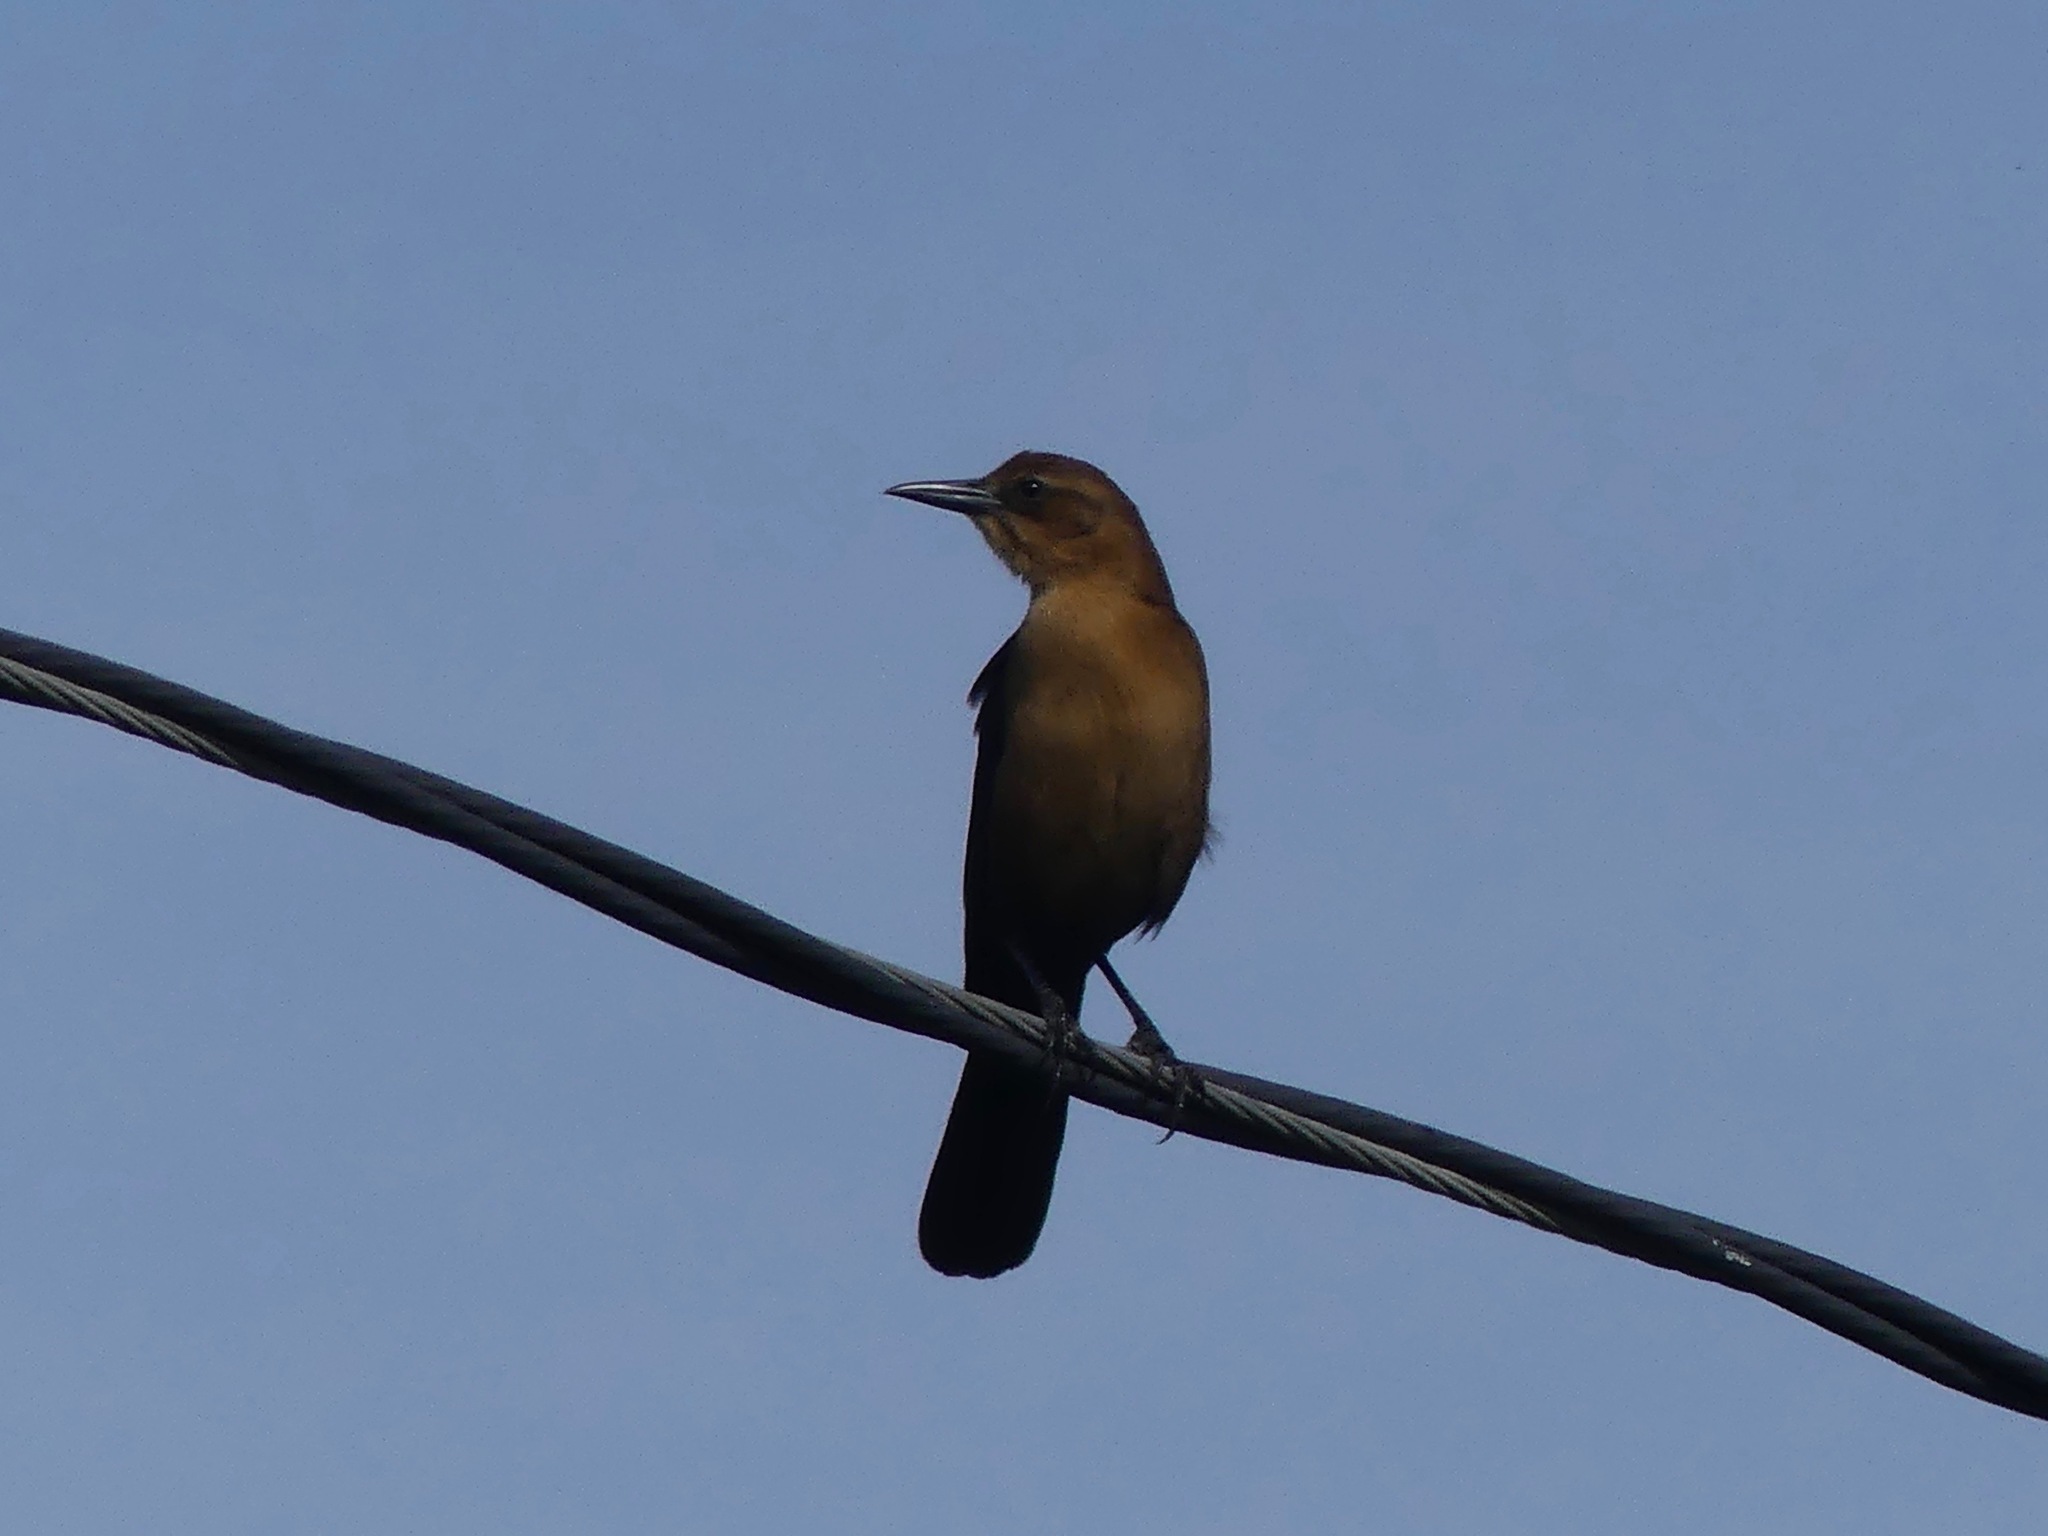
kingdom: Animalia
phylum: Chordata
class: Aves
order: Passeriformes
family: Icteridae
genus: Quiscalus
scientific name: Quiscalus major
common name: Boat-tailed grackle
